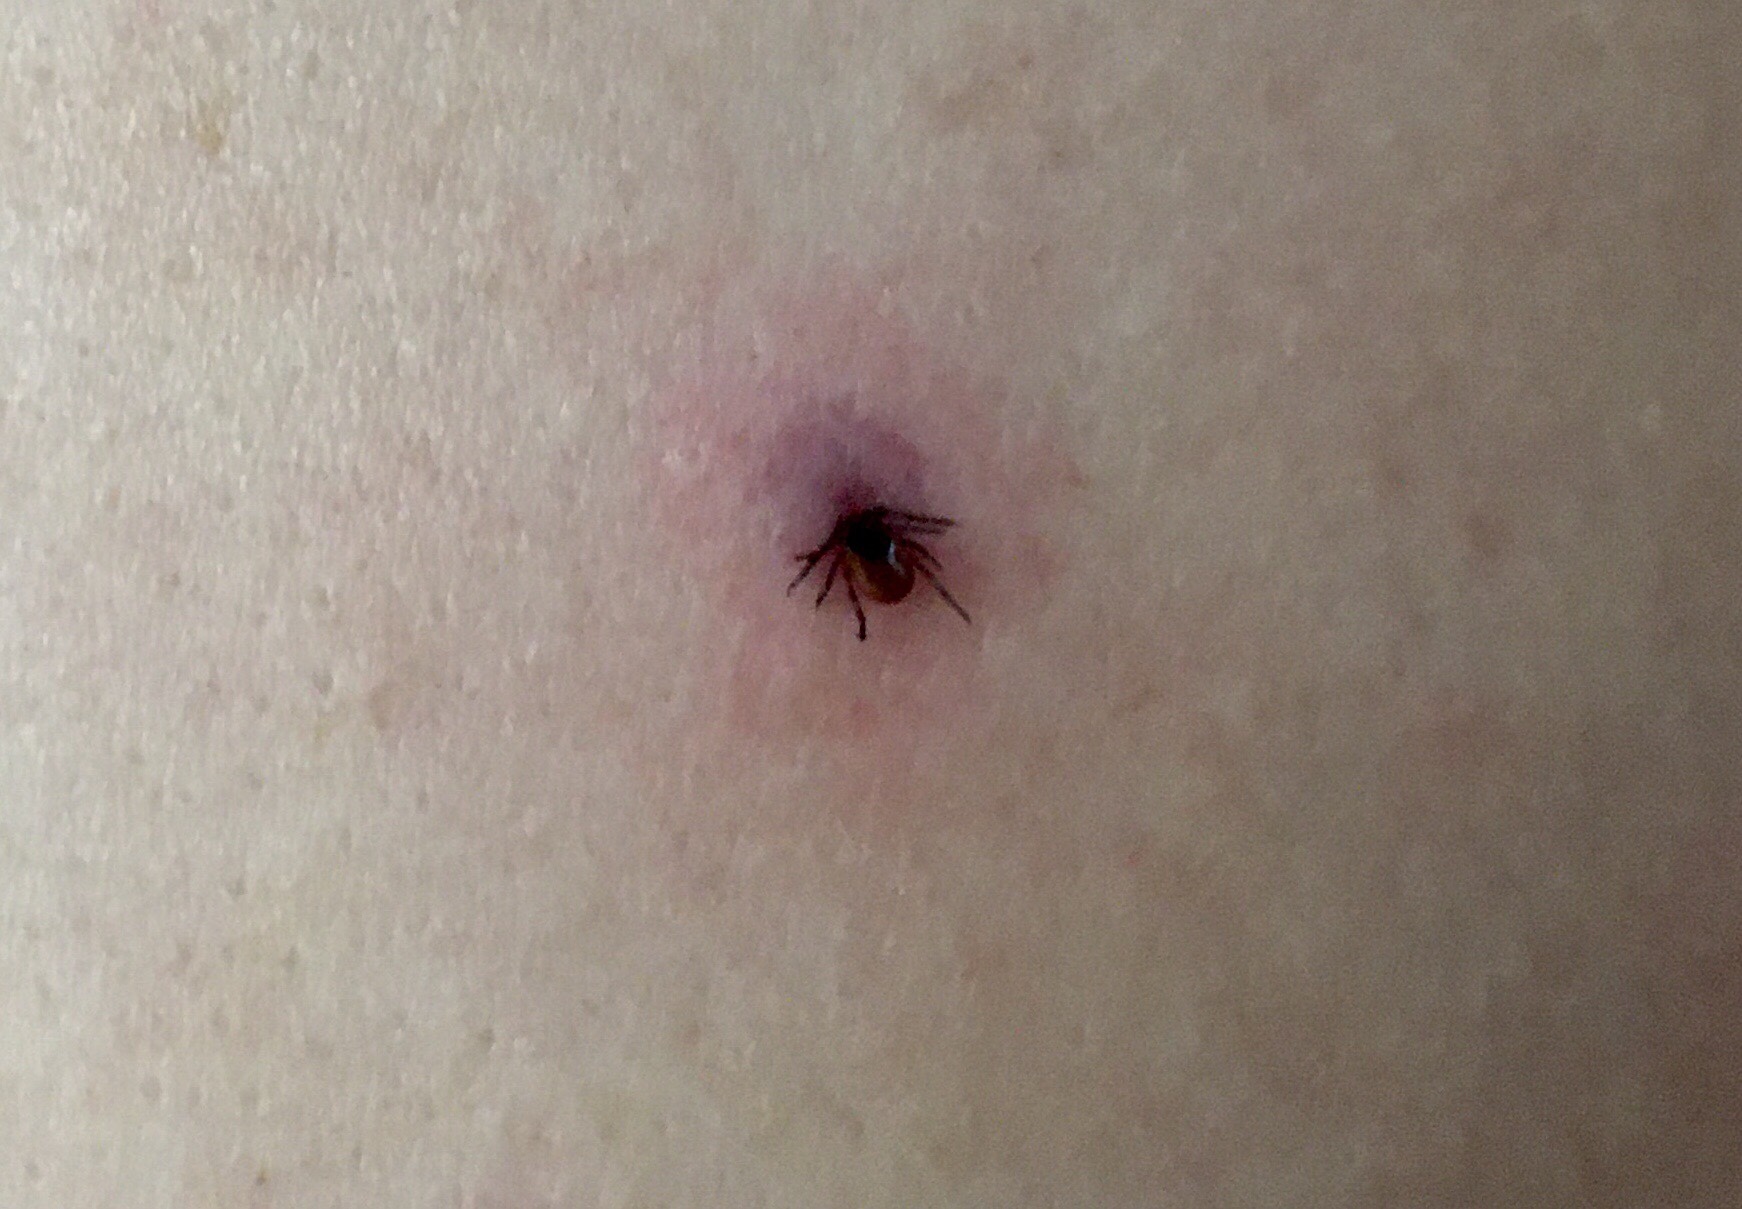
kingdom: Animalia
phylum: Arthropoda
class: Arachnida
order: Ixodida
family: Ixodidae
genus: Ixodes
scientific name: Ixodes scapularis
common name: Black legged tick
